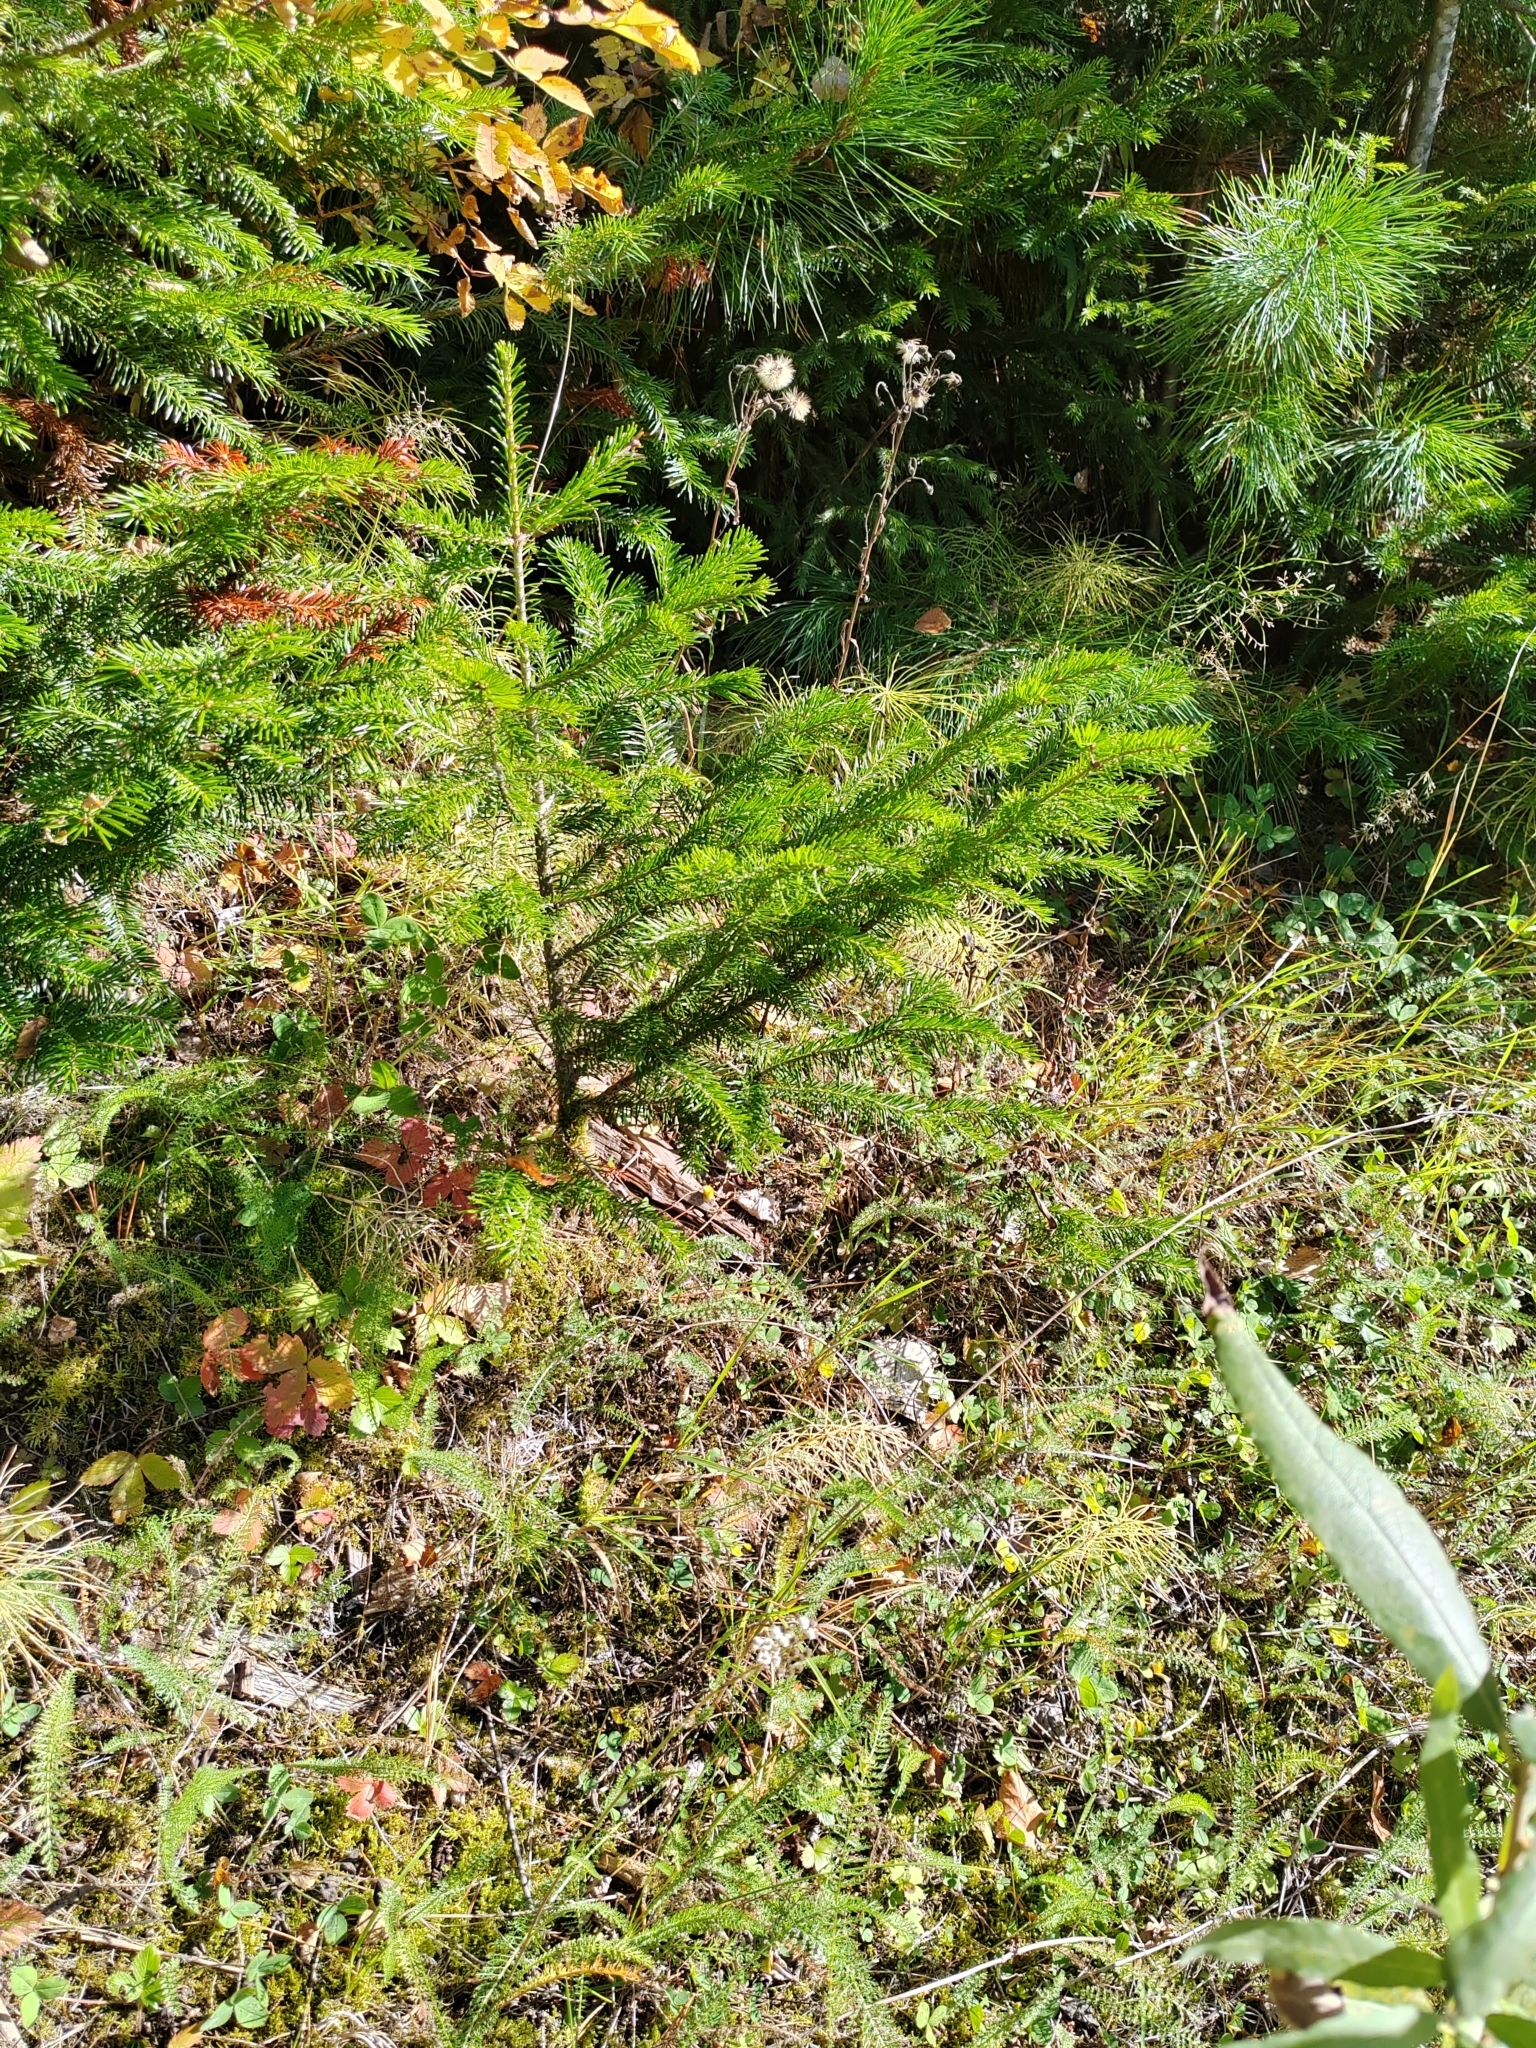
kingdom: Plantae
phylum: Tracheophyta
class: Pinopsida
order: Pinales
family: Pinaceae
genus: Abies
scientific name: Abies sibirica
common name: Siberian fir
